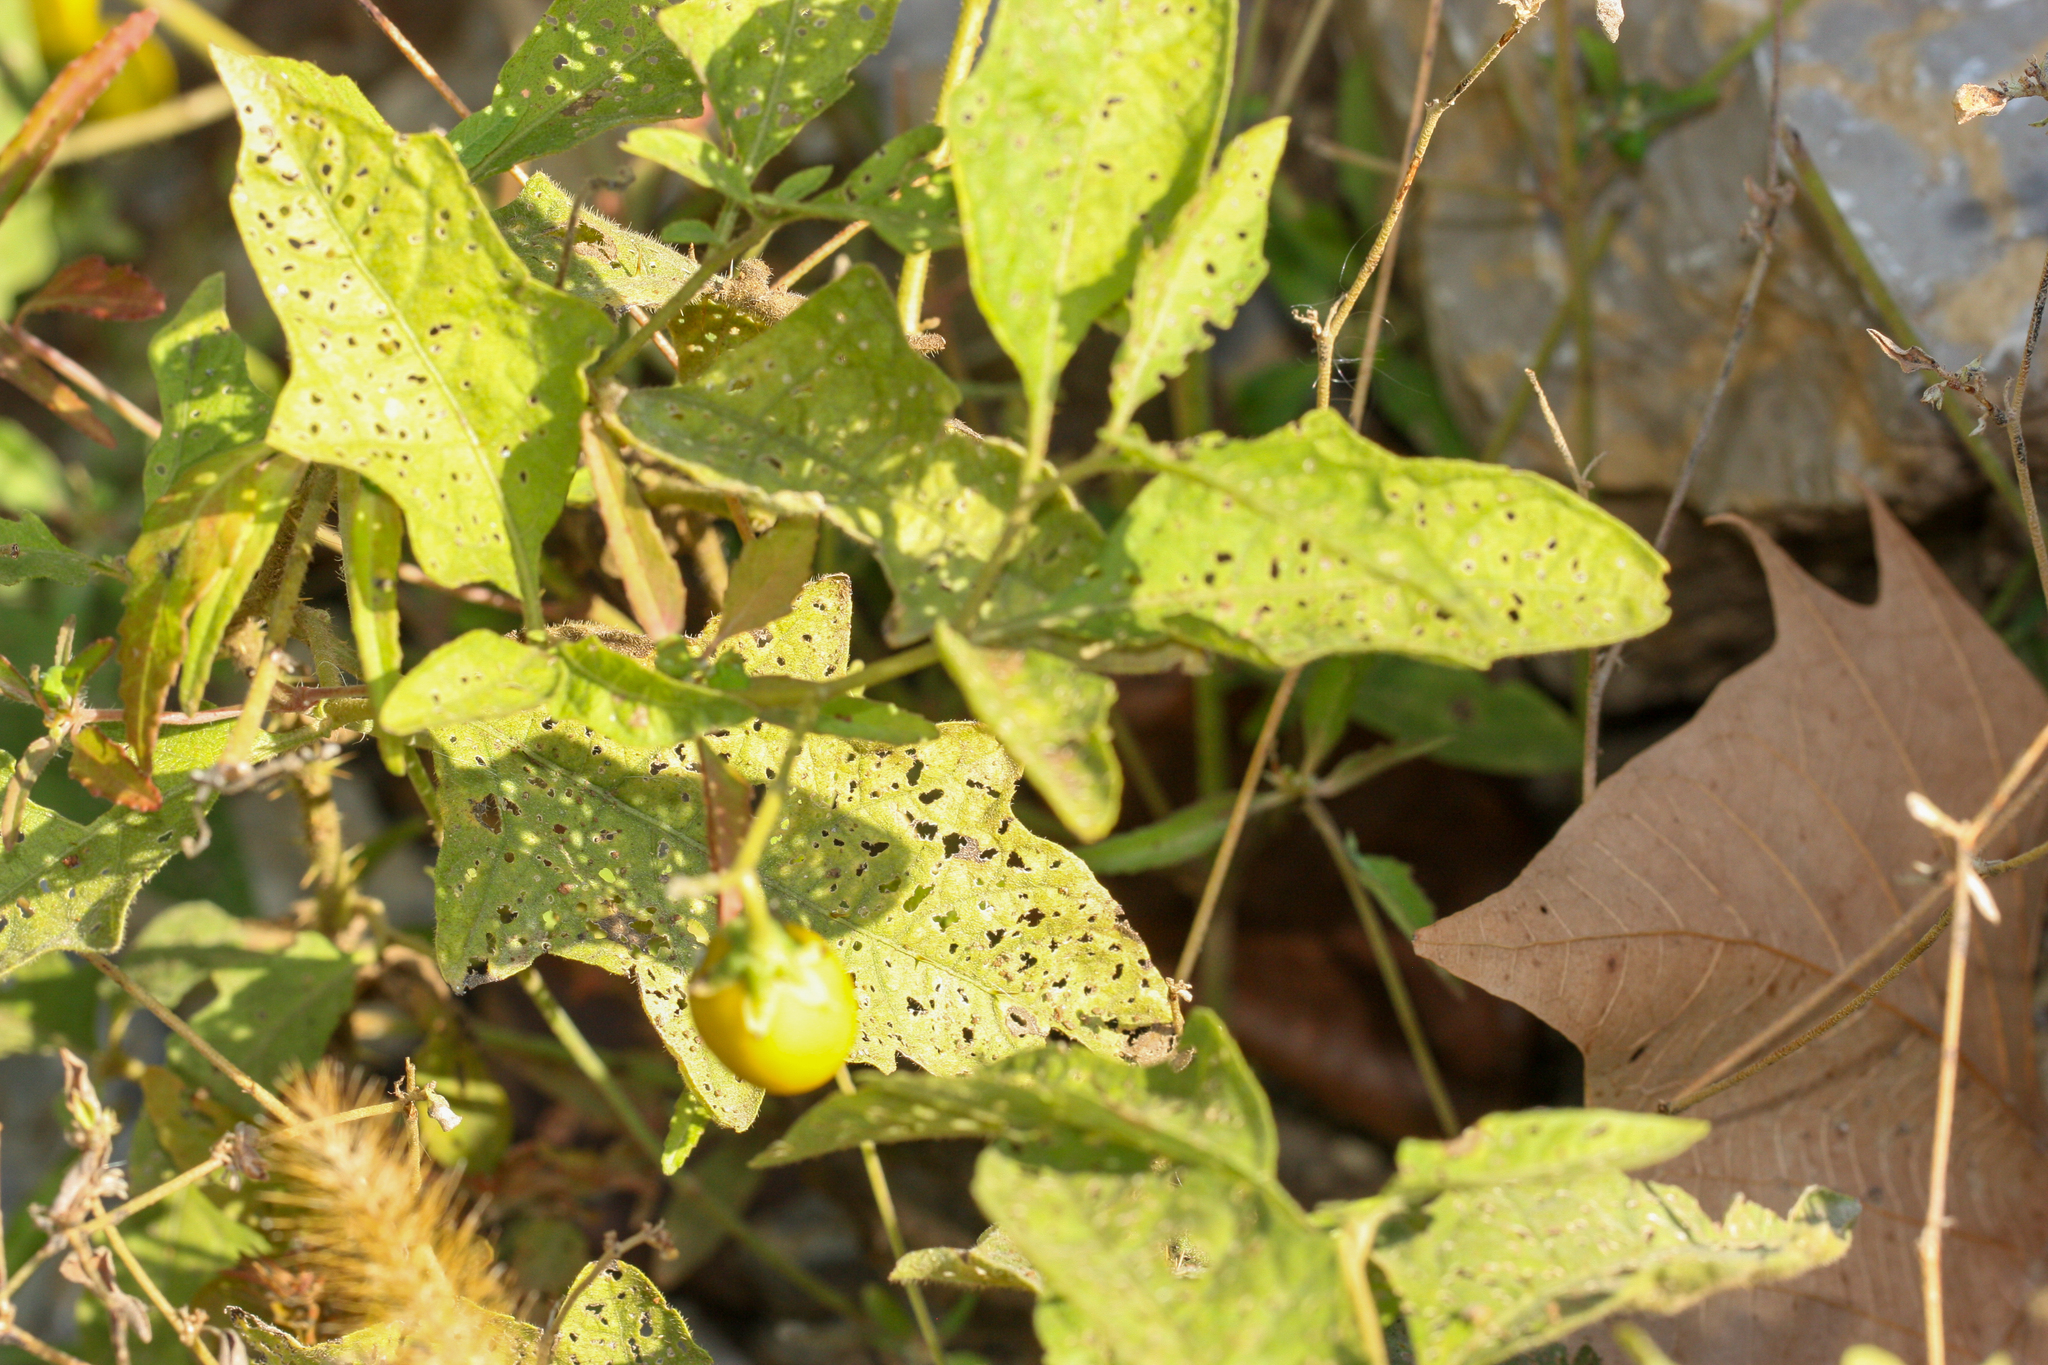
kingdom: Plantae
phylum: Tracheophyta
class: Magnoliopsida
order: Solanales
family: Solanaceae
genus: Solanum
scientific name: Solanum carolinense
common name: Horse-nettle
